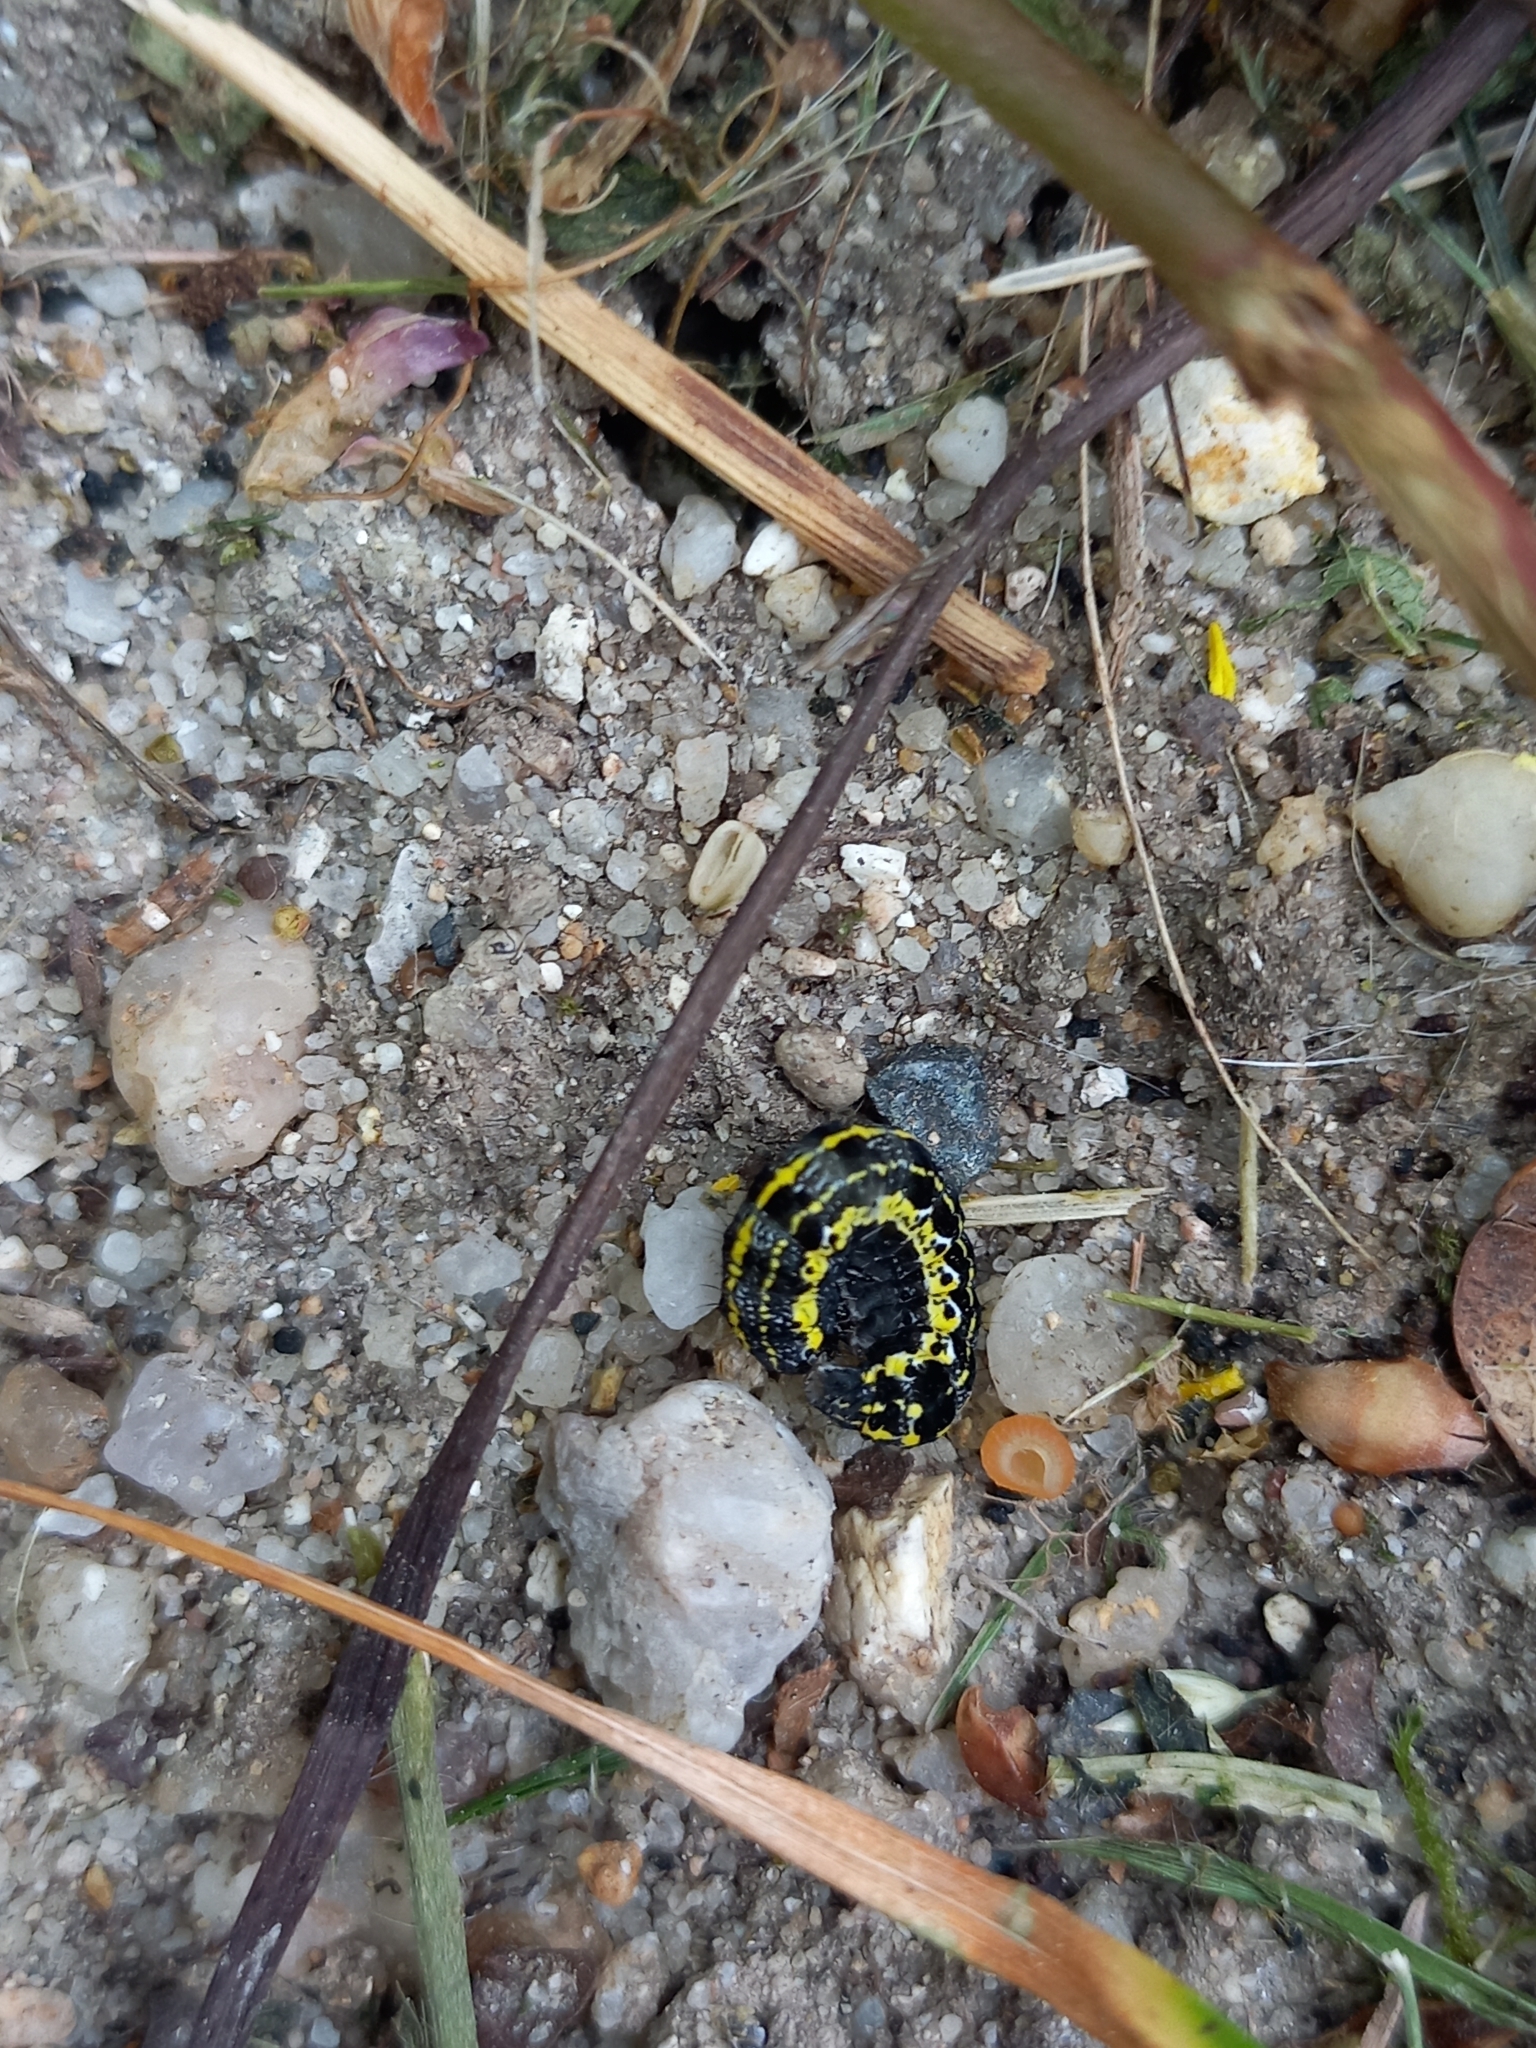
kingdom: Animalia
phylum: Arthropoda
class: Insecta
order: Lepidoptera
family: Noctuidae
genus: Orthosia
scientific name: Orthosia miniosa
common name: Blossom underwing
